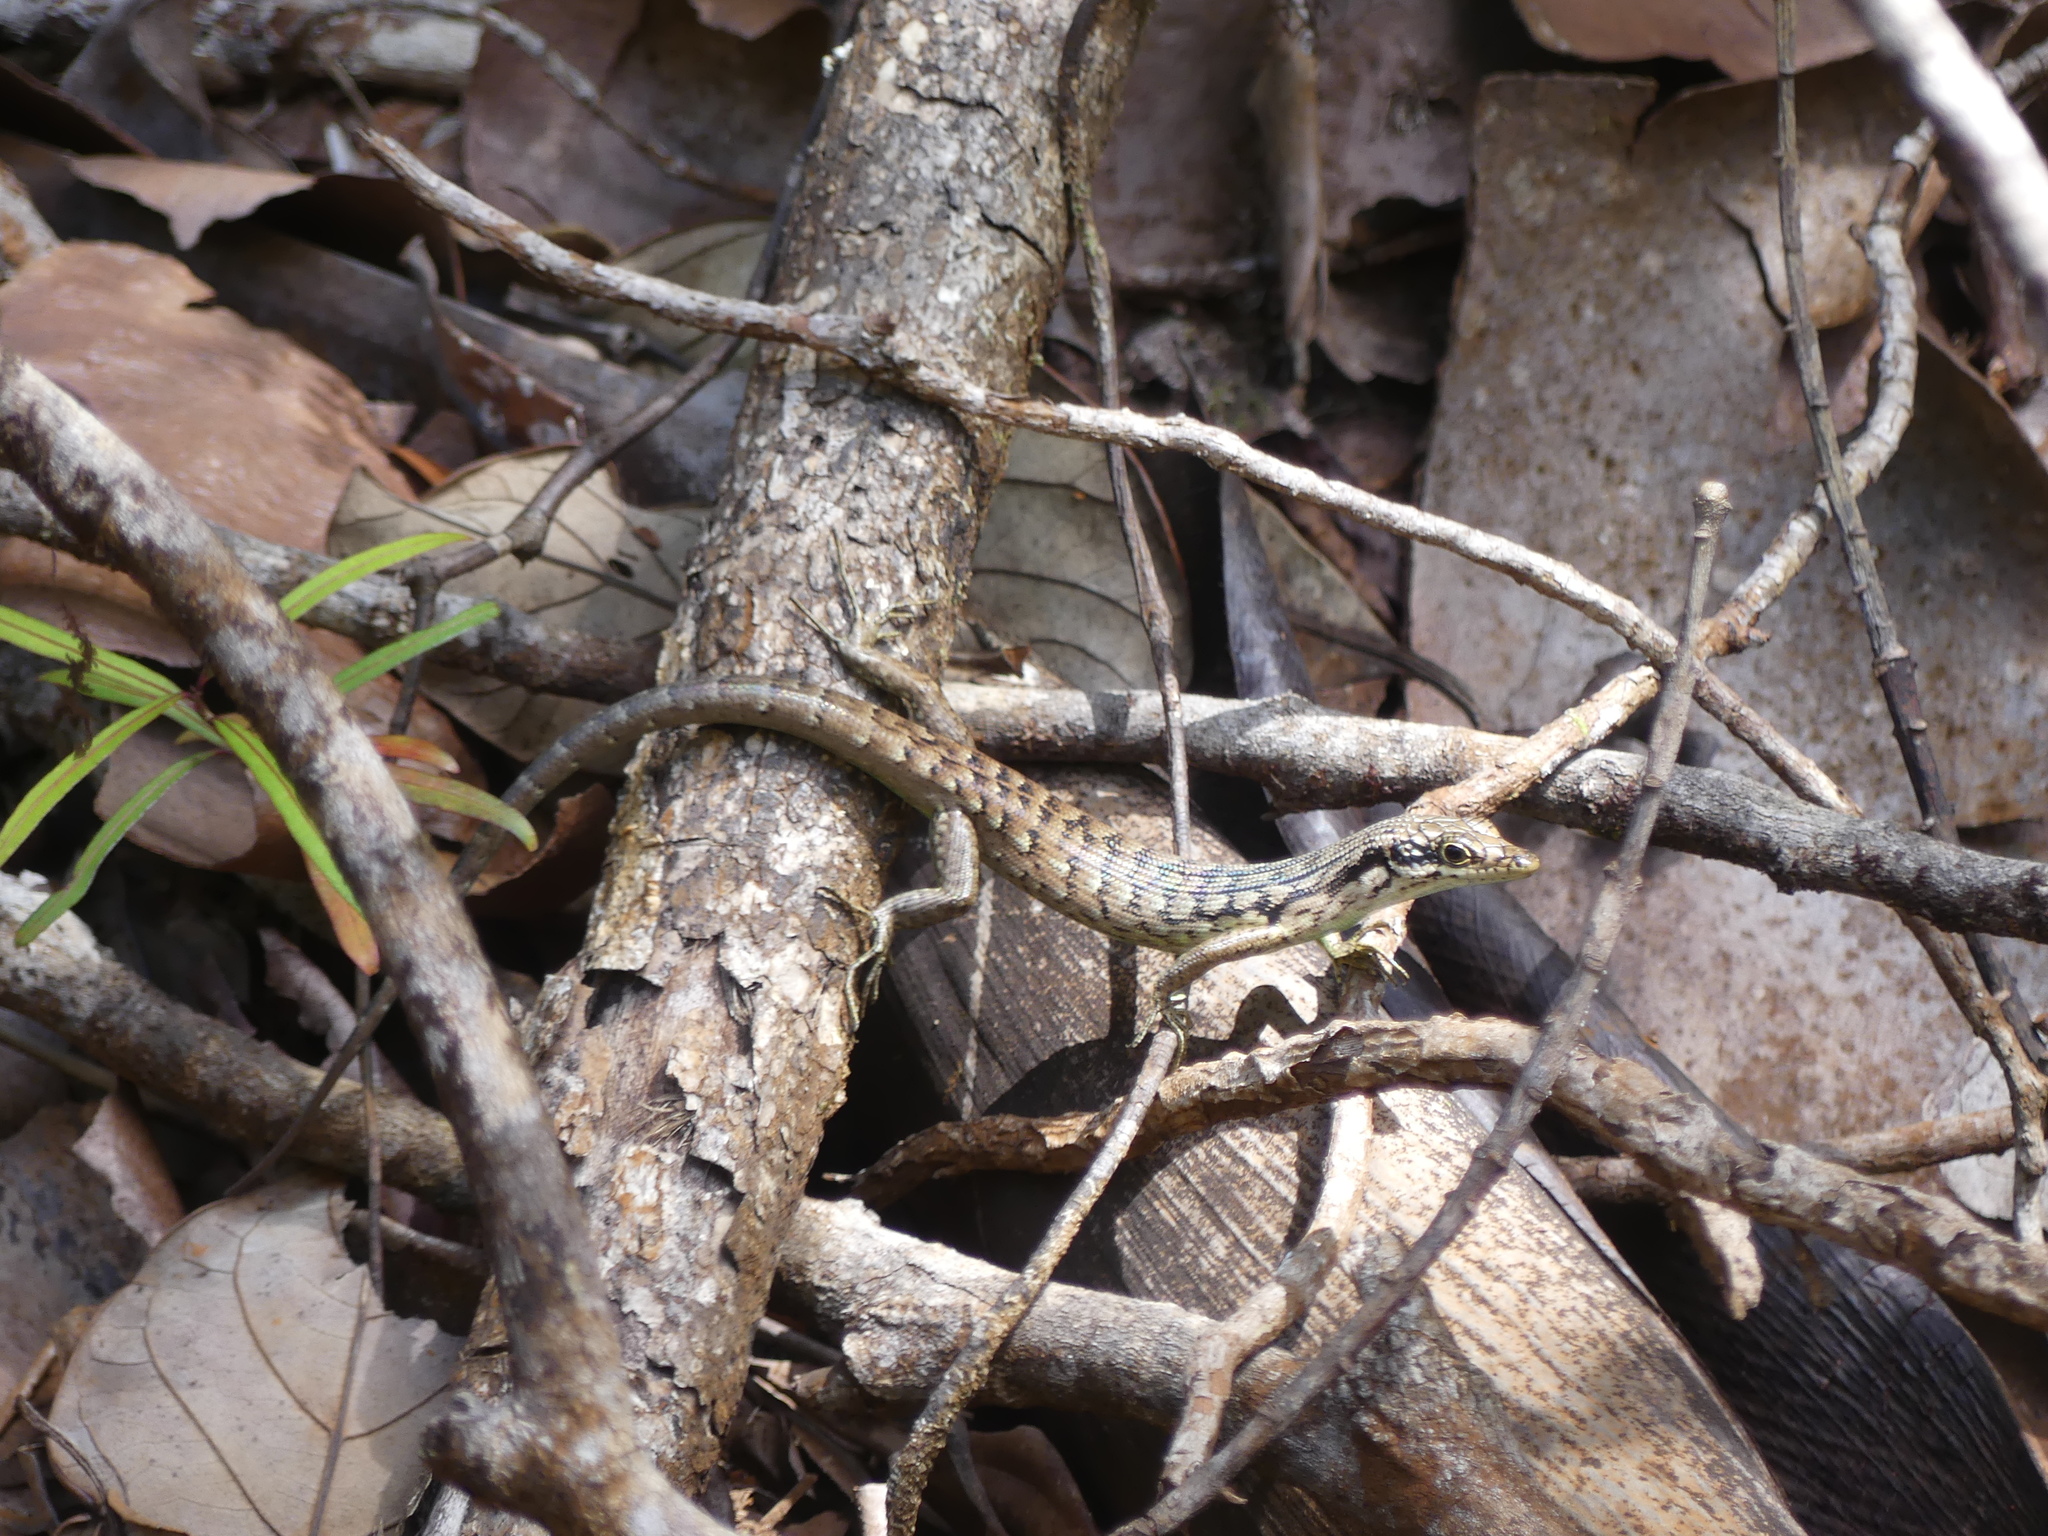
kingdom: Animalia
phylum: Chordata
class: Squamata
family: Scincidae
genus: Epibator
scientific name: Epibator nigrofasciolatus
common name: Green-bellied tree skink
